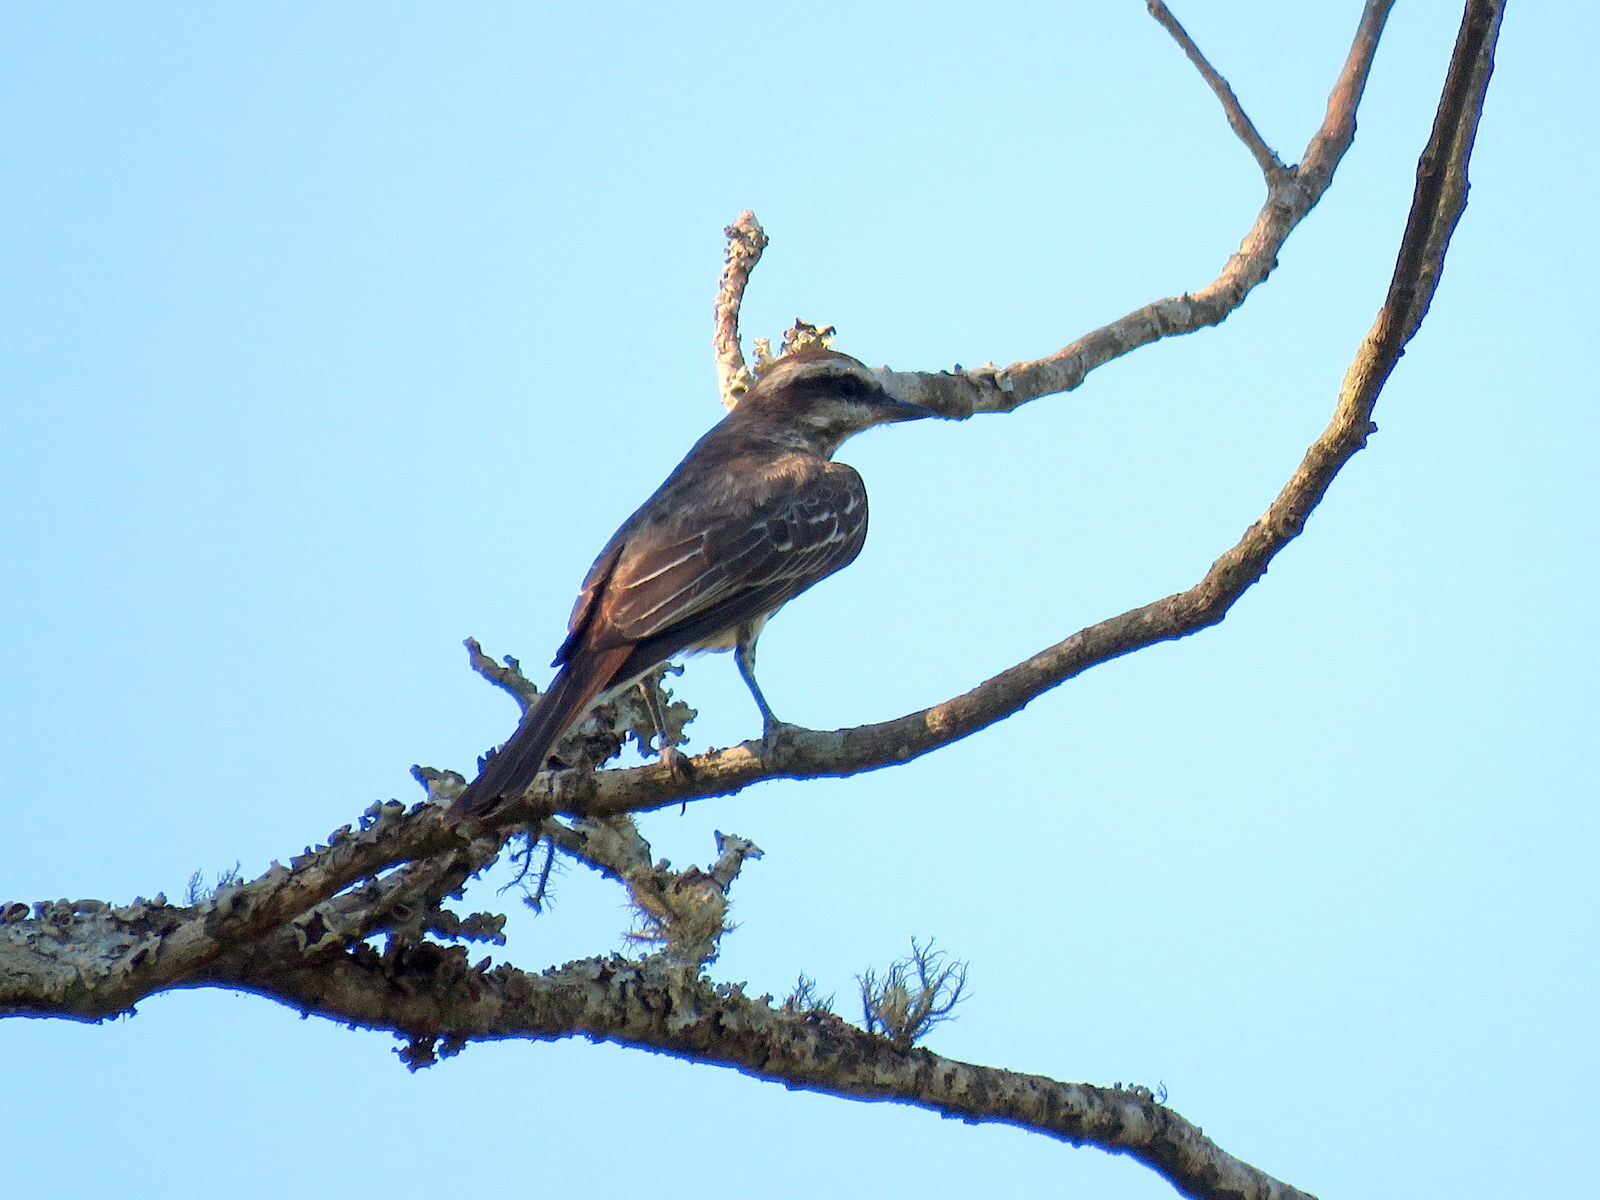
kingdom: Animalia
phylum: Chordata
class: Aves
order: Passeriformes
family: Tyrannidae
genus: Empidonomus
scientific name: Empidonomus varius
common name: Variegated flycatcher
